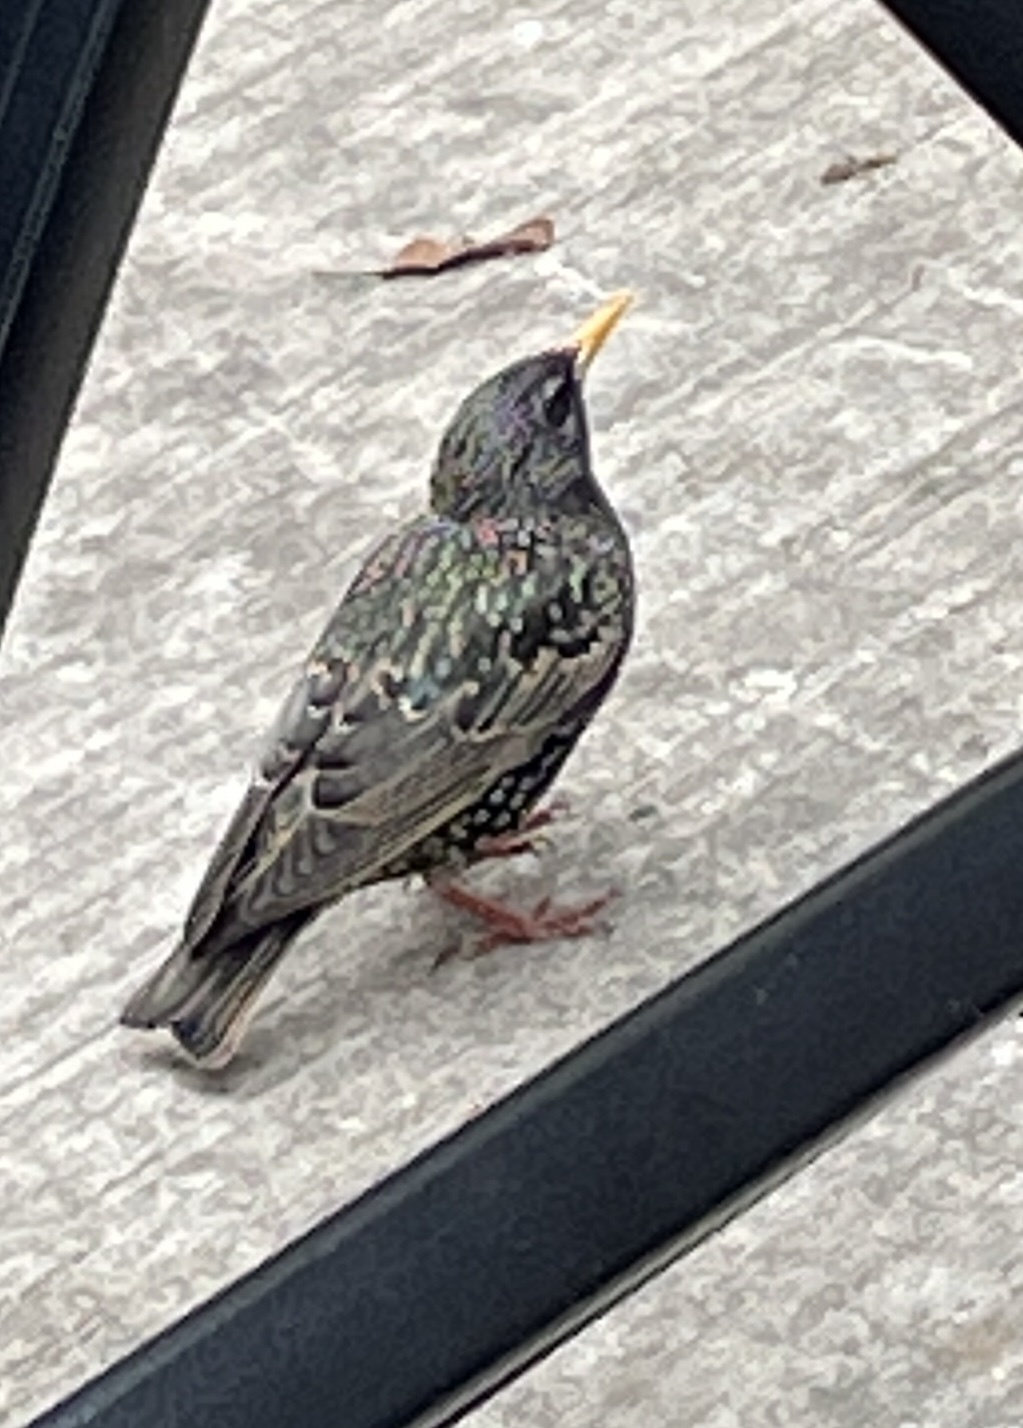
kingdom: Animalia
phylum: Chordata
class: Aves
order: Passeriformes
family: Sturnidae
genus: Sturnus
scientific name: Sturnus vulgaris
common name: Common starling
